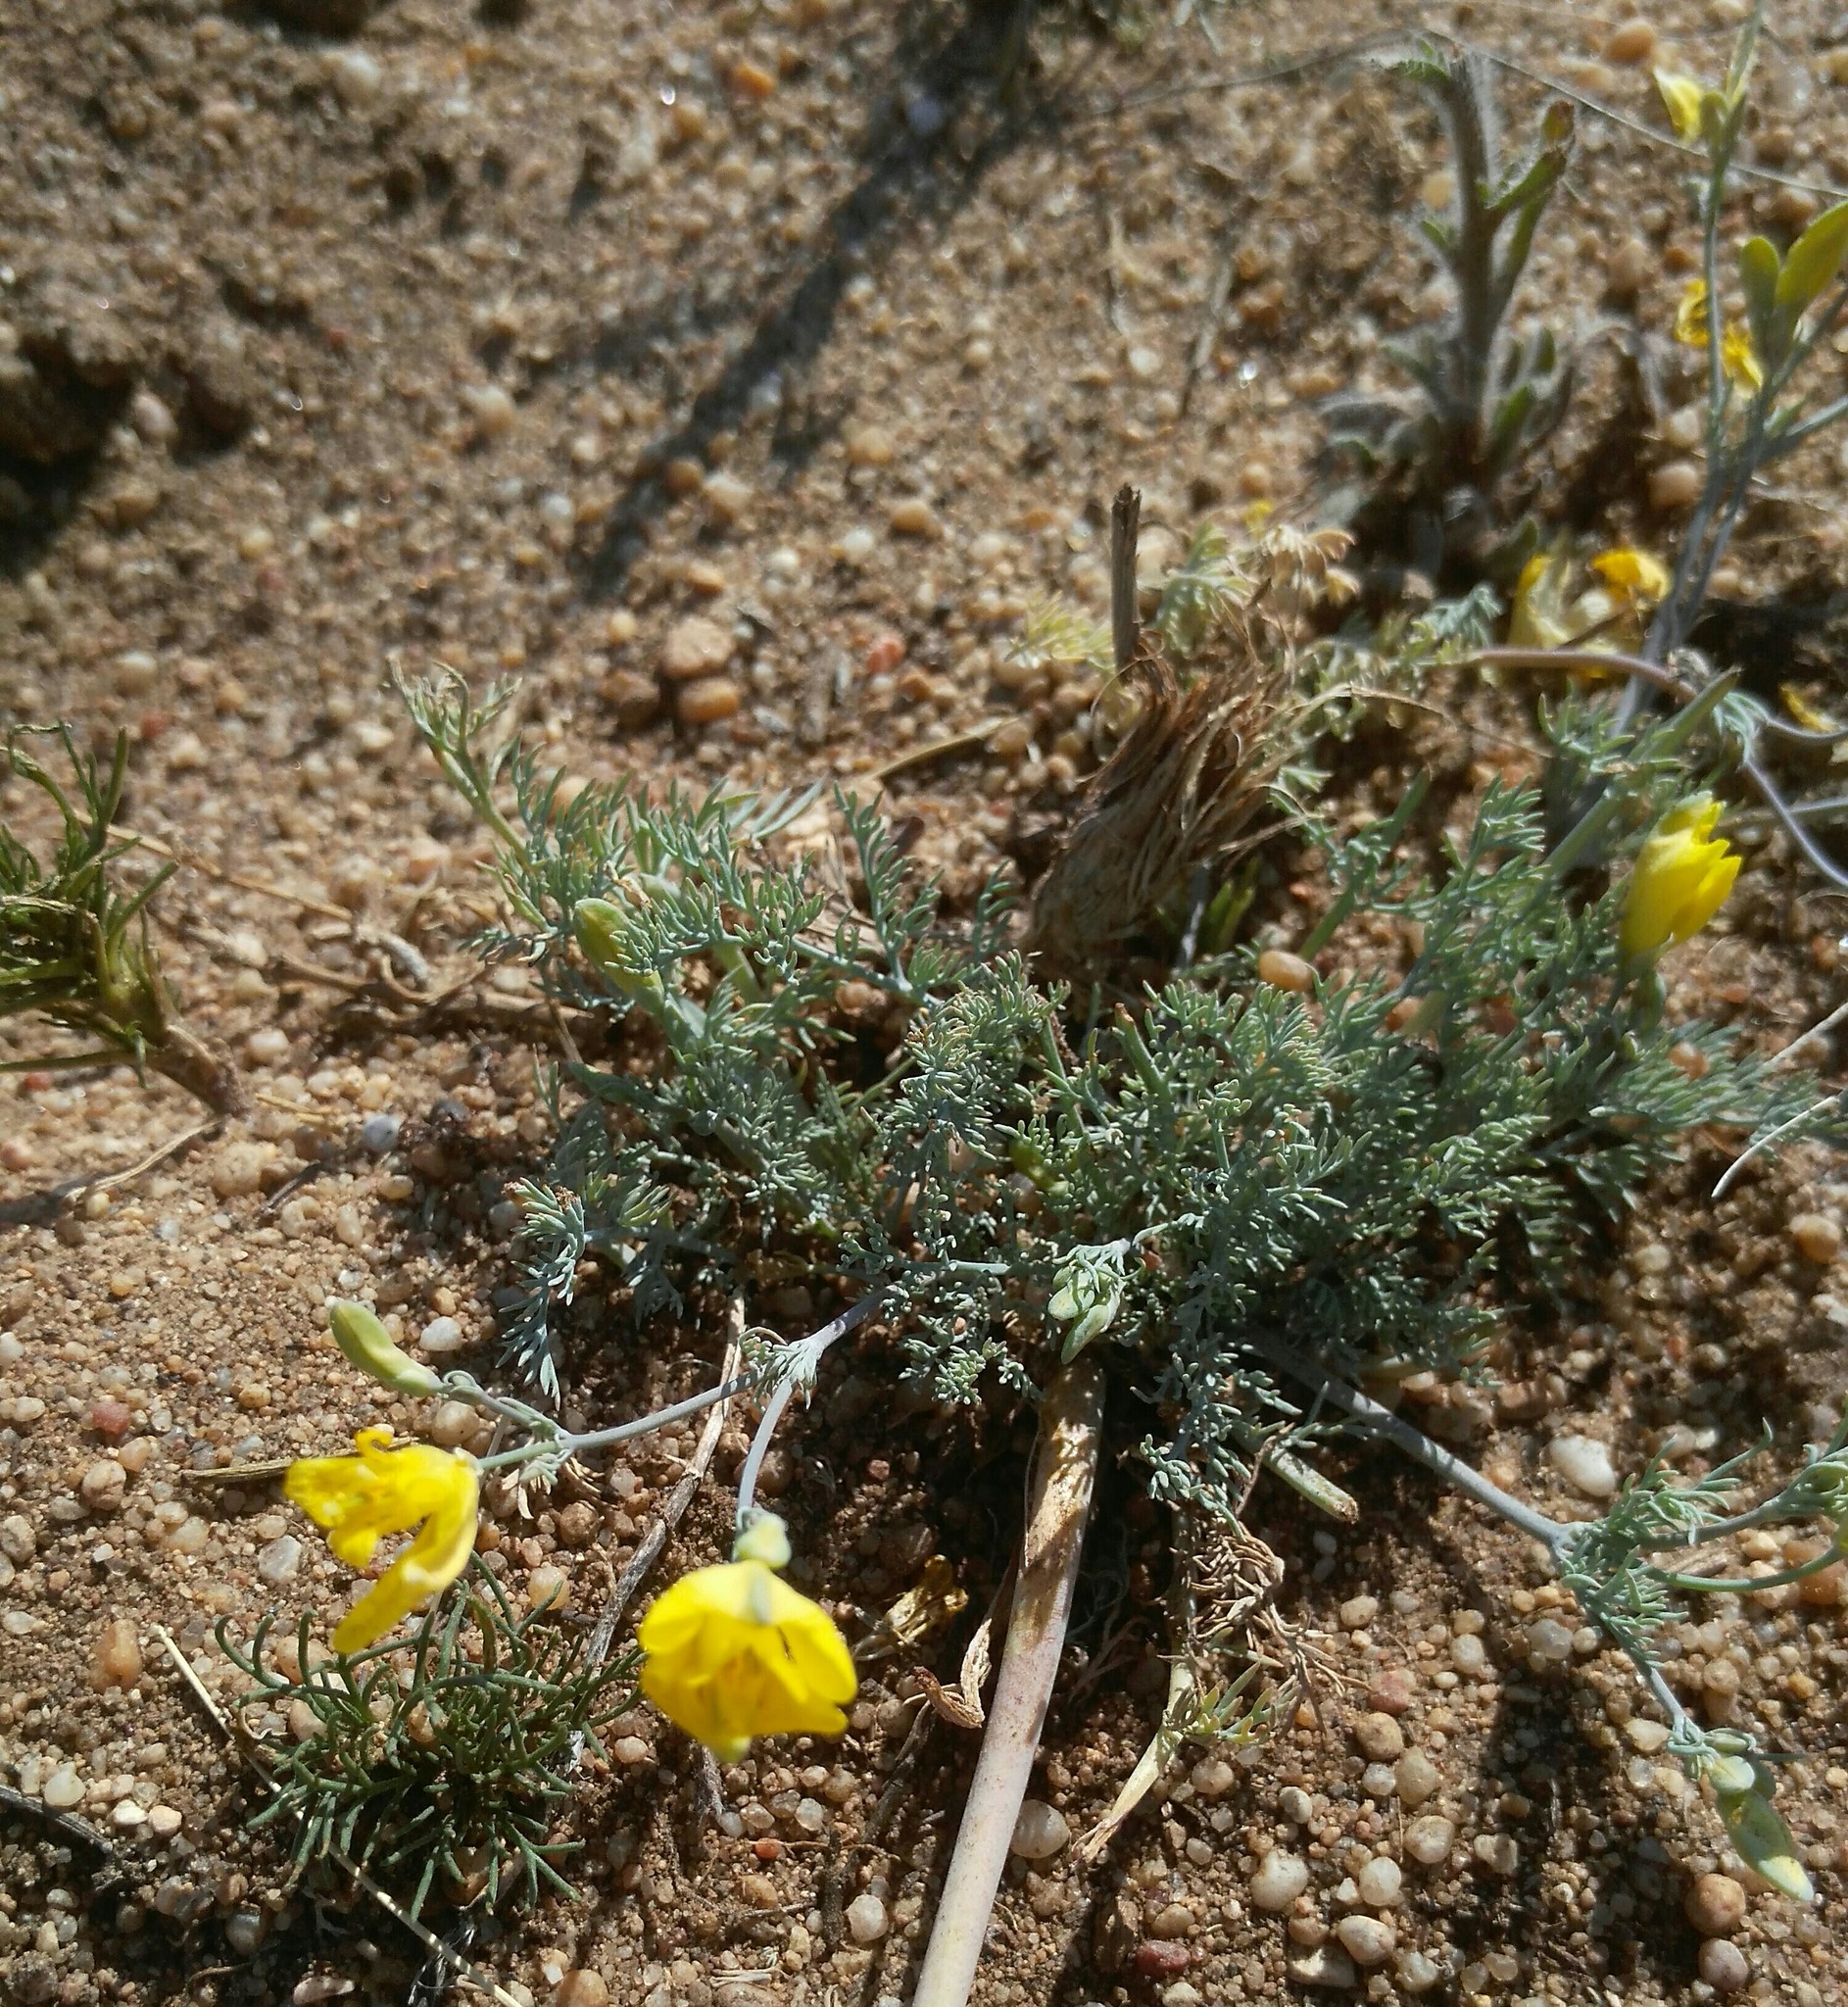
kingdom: Plantae
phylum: Tracheophyta
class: Magnoliopsida
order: Ranunculales
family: Papaveraceae
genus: Hypecoum
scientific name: Hypecoum erectum
